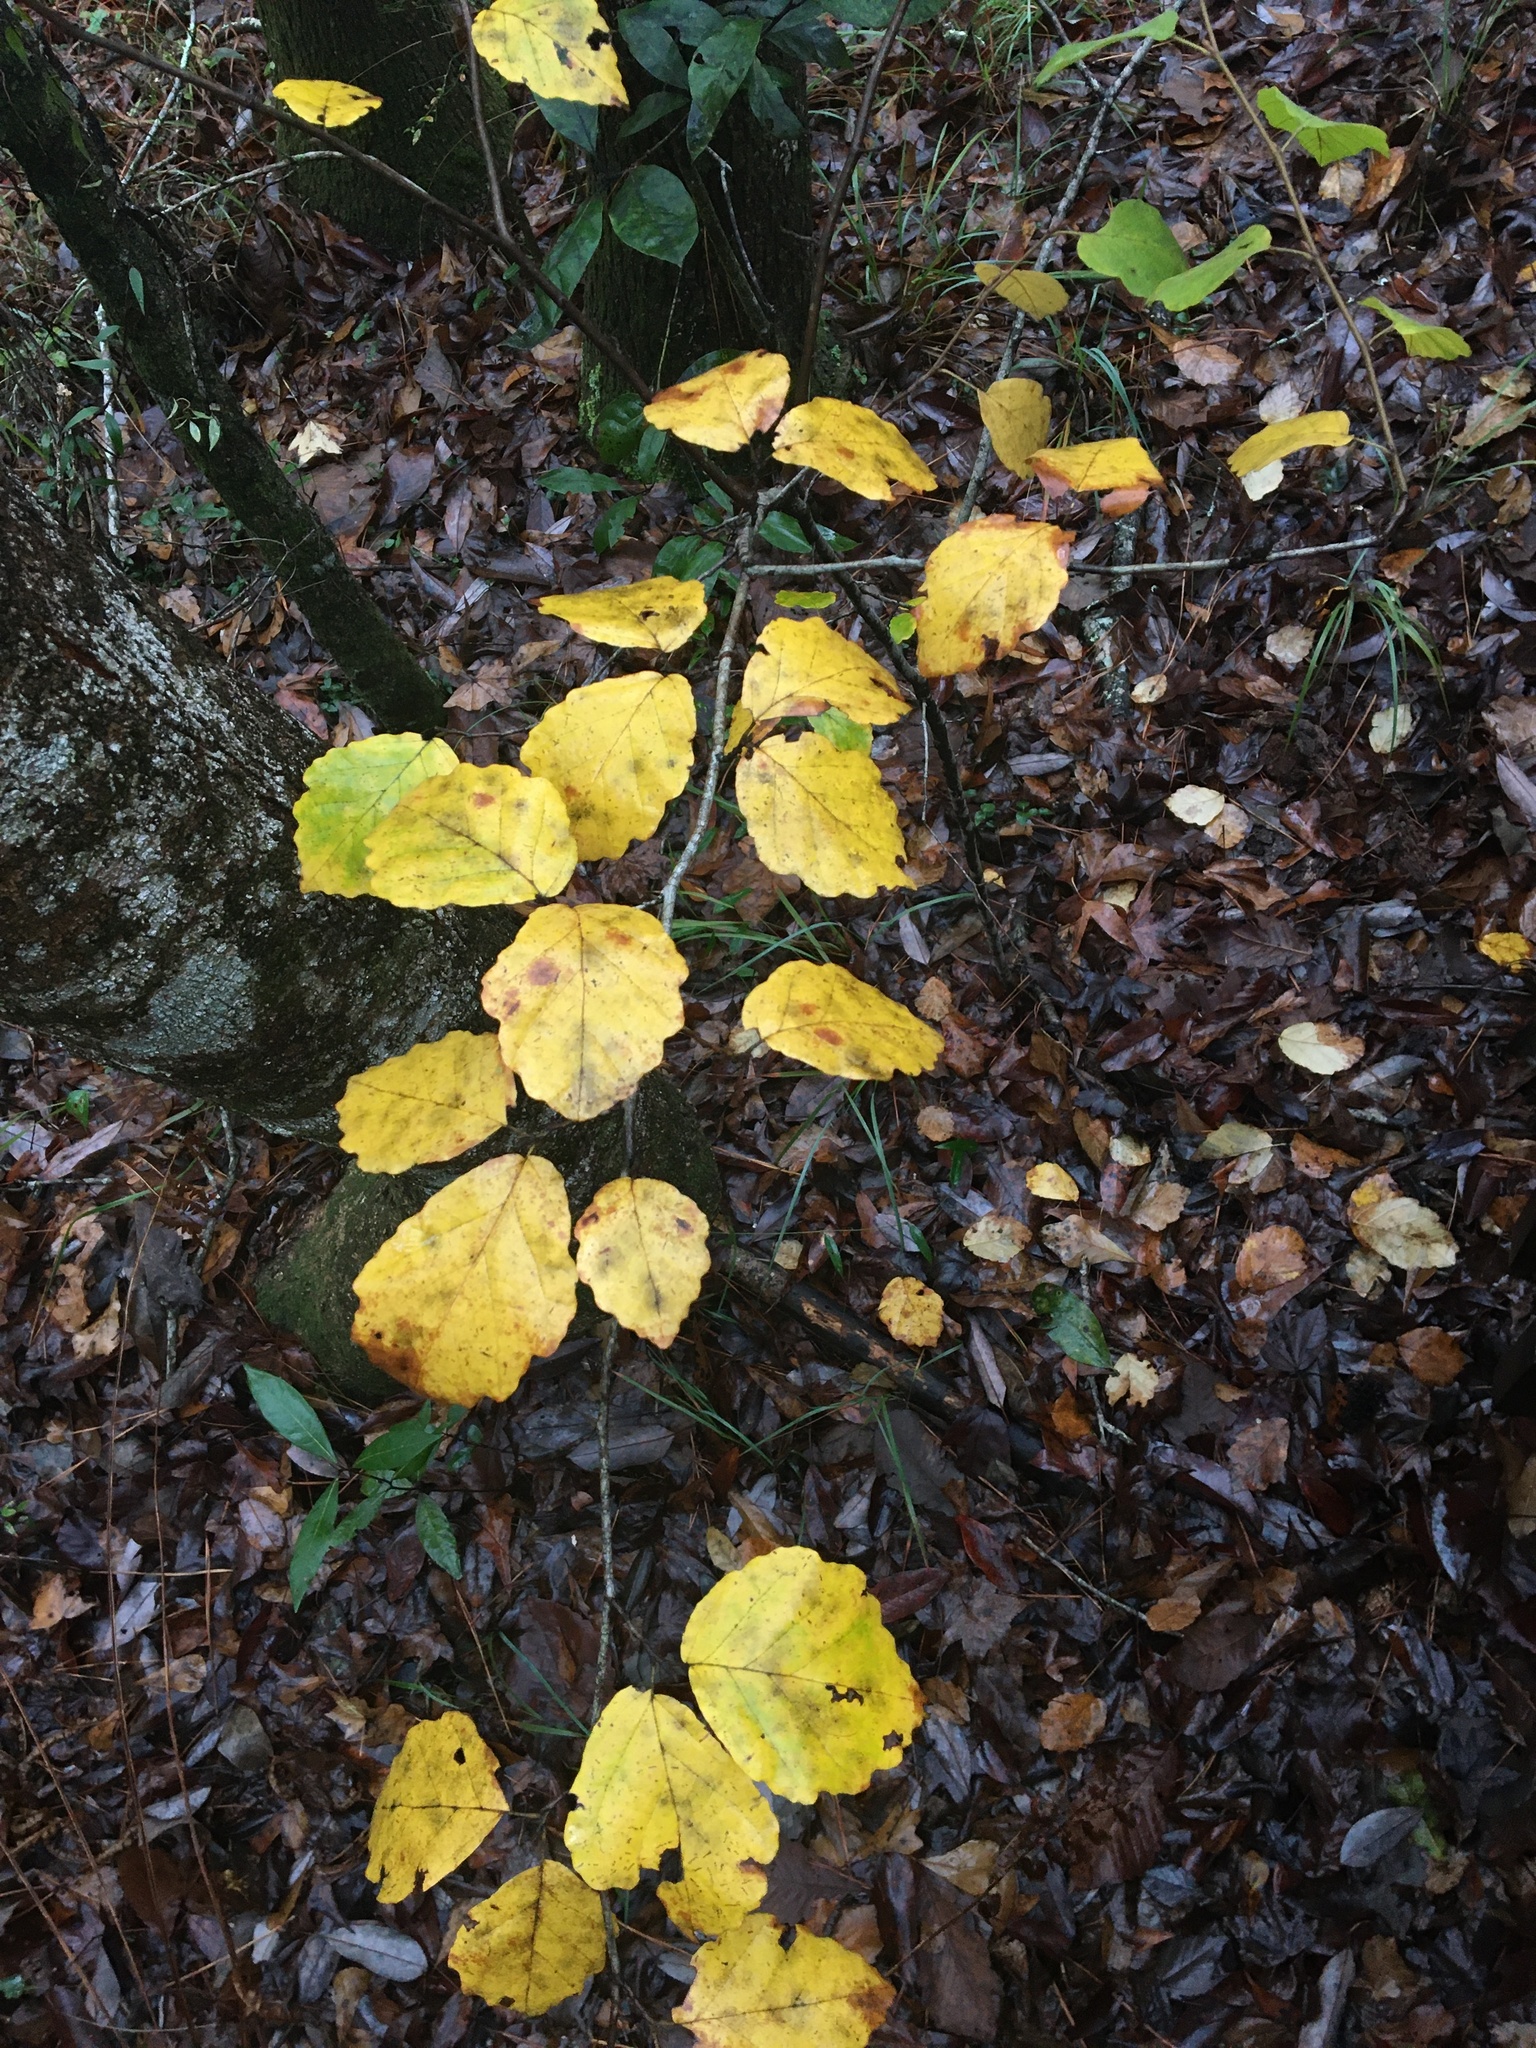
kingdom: Plantae
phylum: Tracheophyta
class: Magnoliopsida
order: Saxifragales
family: Hamamelidaceae
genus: Hamamelis
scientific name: Hamamelis virginiana
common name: Witch-hazel
